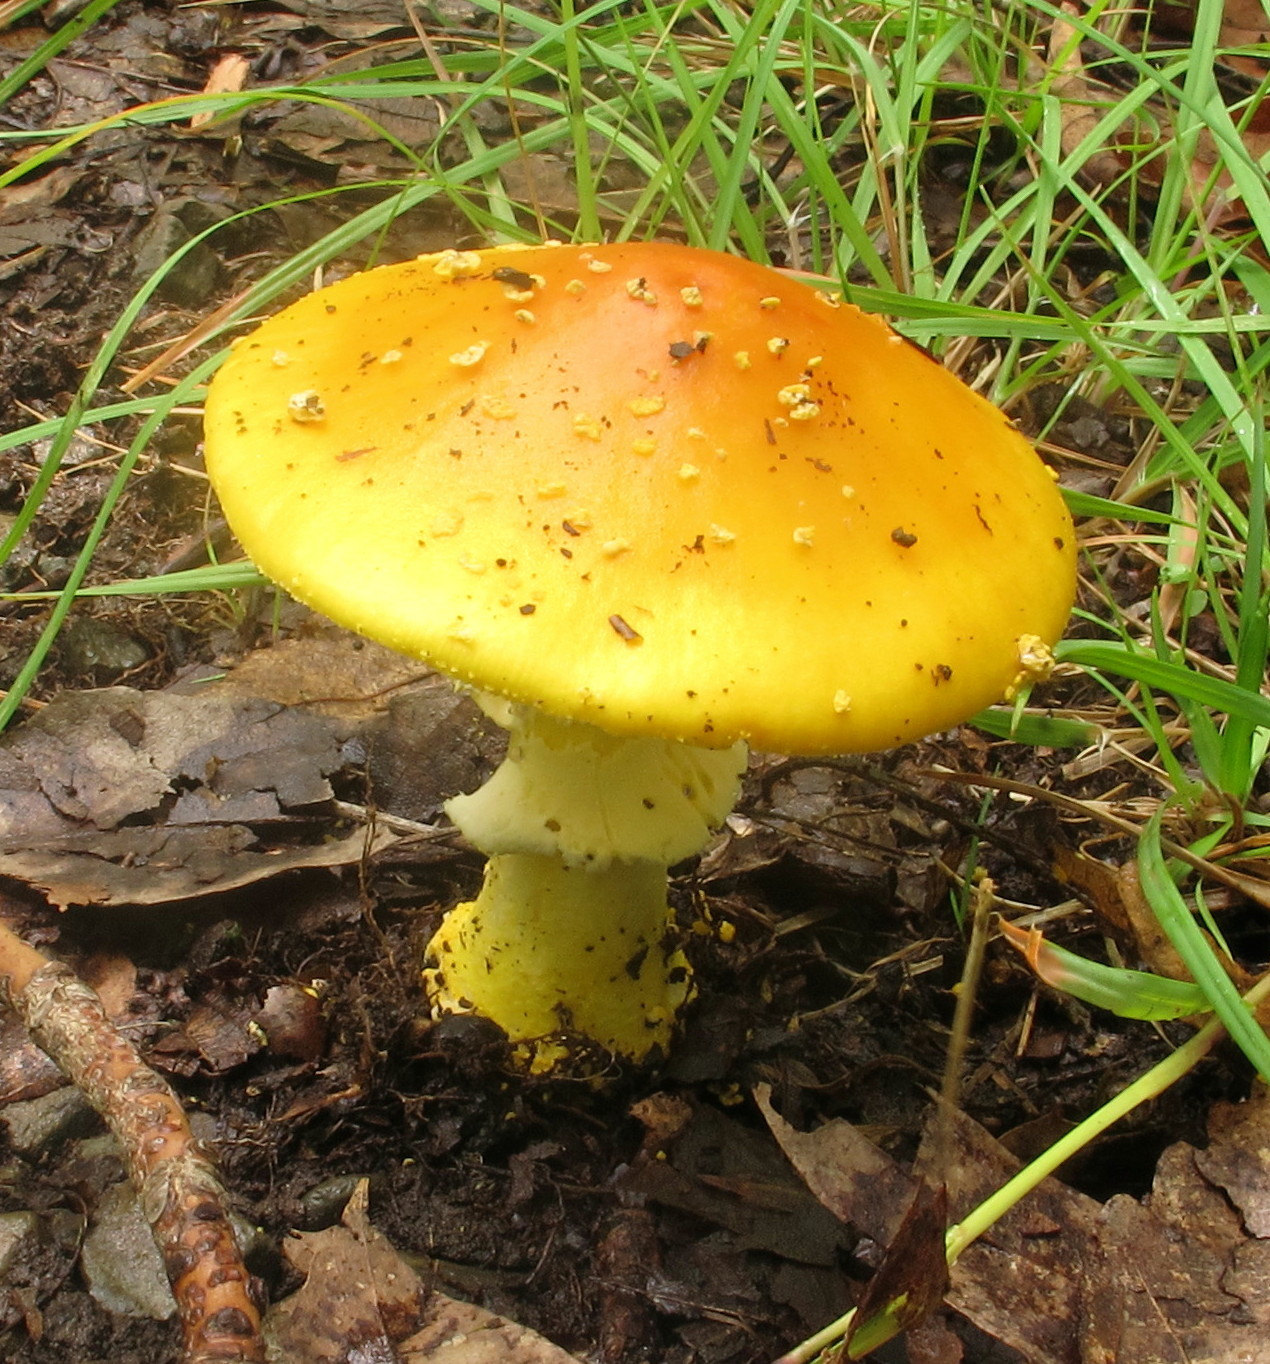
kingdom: Fungi
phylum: Basidiomycota
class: Agaricomycetes
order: Agaricales
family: Amanitaceae
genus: Amanita
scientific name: Amanita flavoconia
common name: Yellow patches
